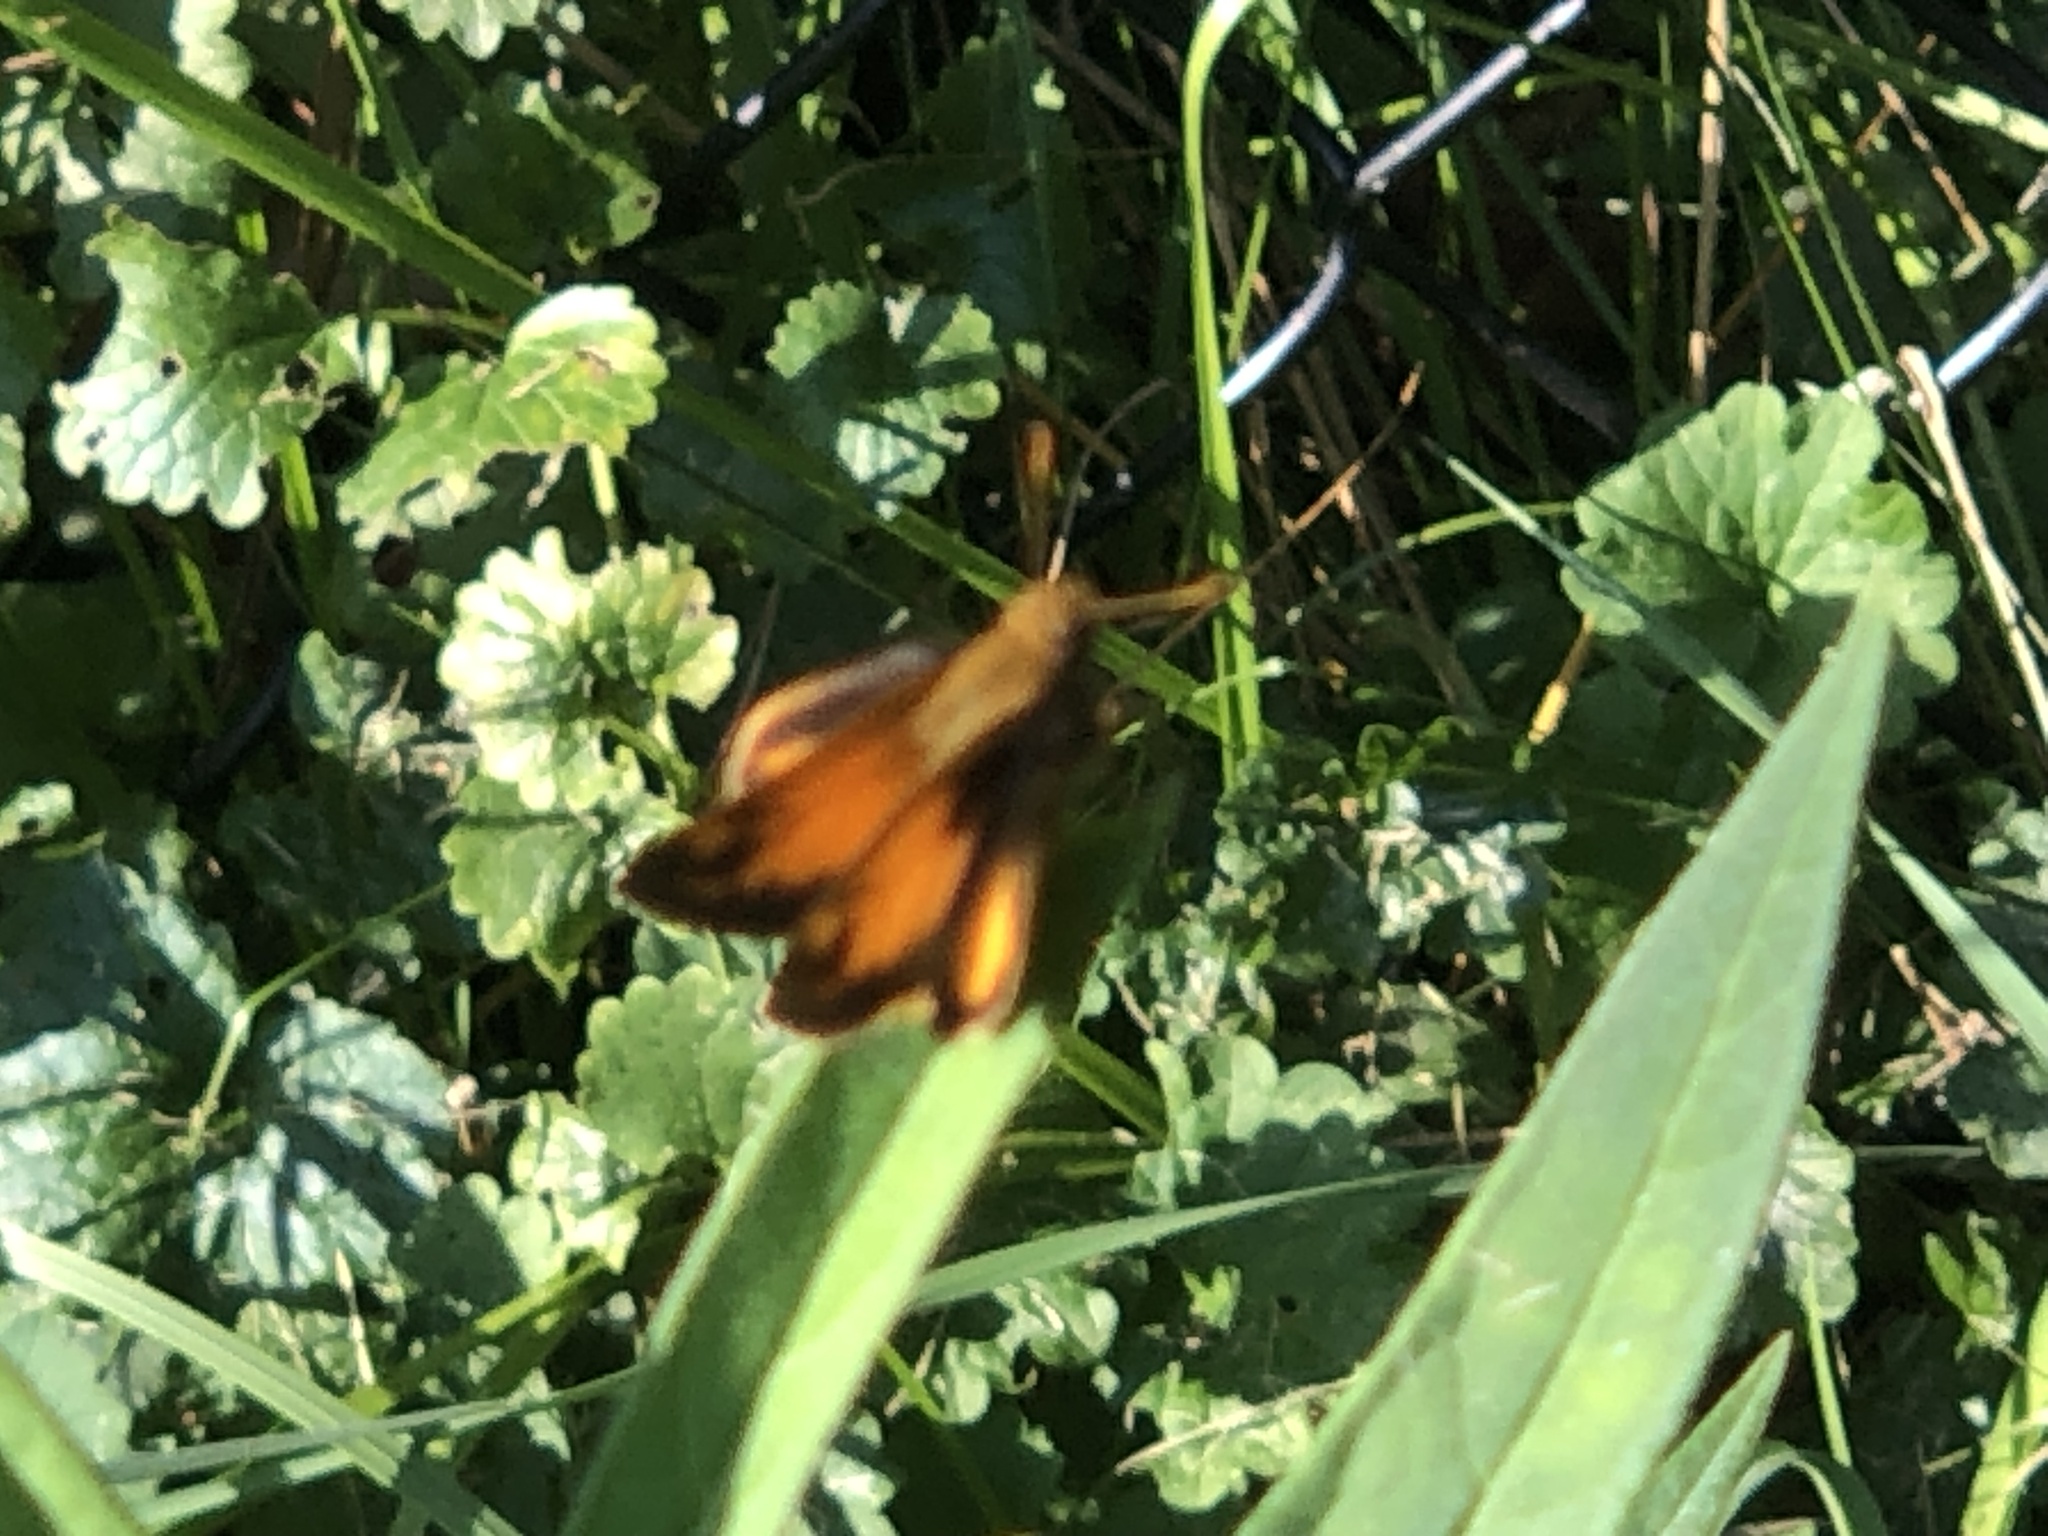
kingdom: Animalia
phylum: Arthropoda
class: Insecta
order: Lepidoptera
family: Hesperiidae
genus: Lon
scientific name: Lon zabulon
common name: Zabulon skipper
